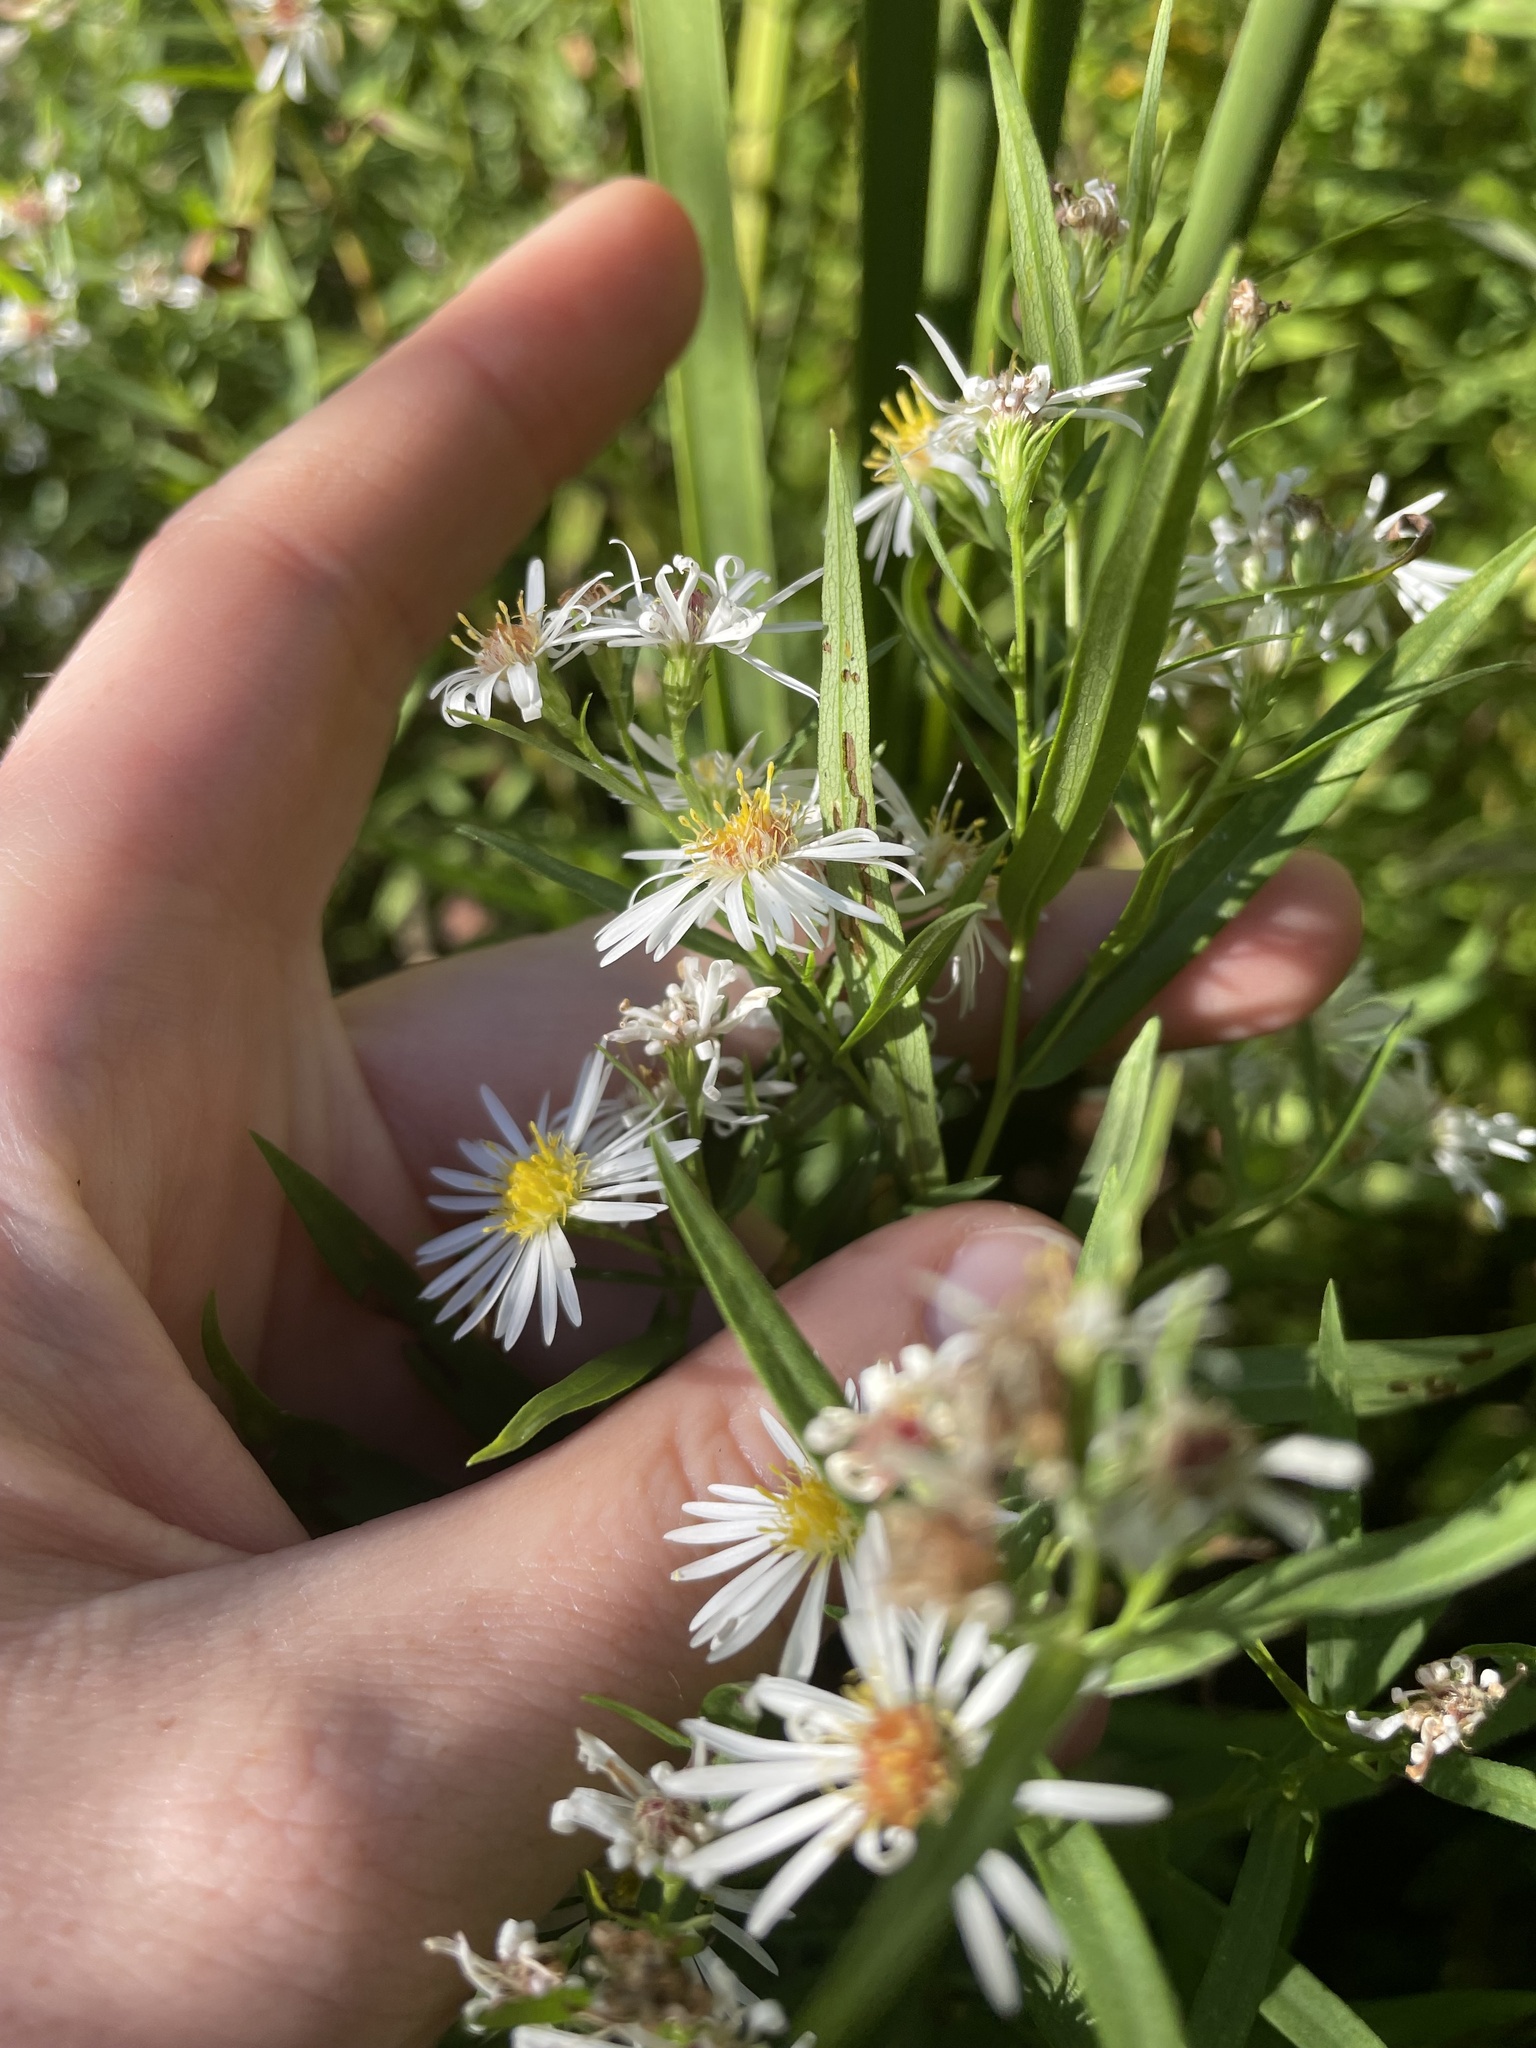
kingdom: Plantae
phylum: Tracheophyta
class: Magnoliopsida
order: Asterales
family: Asteraceae
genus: Symphyotrichum
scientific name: Symphyotrichum lanceolatum
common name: Panicled aster
